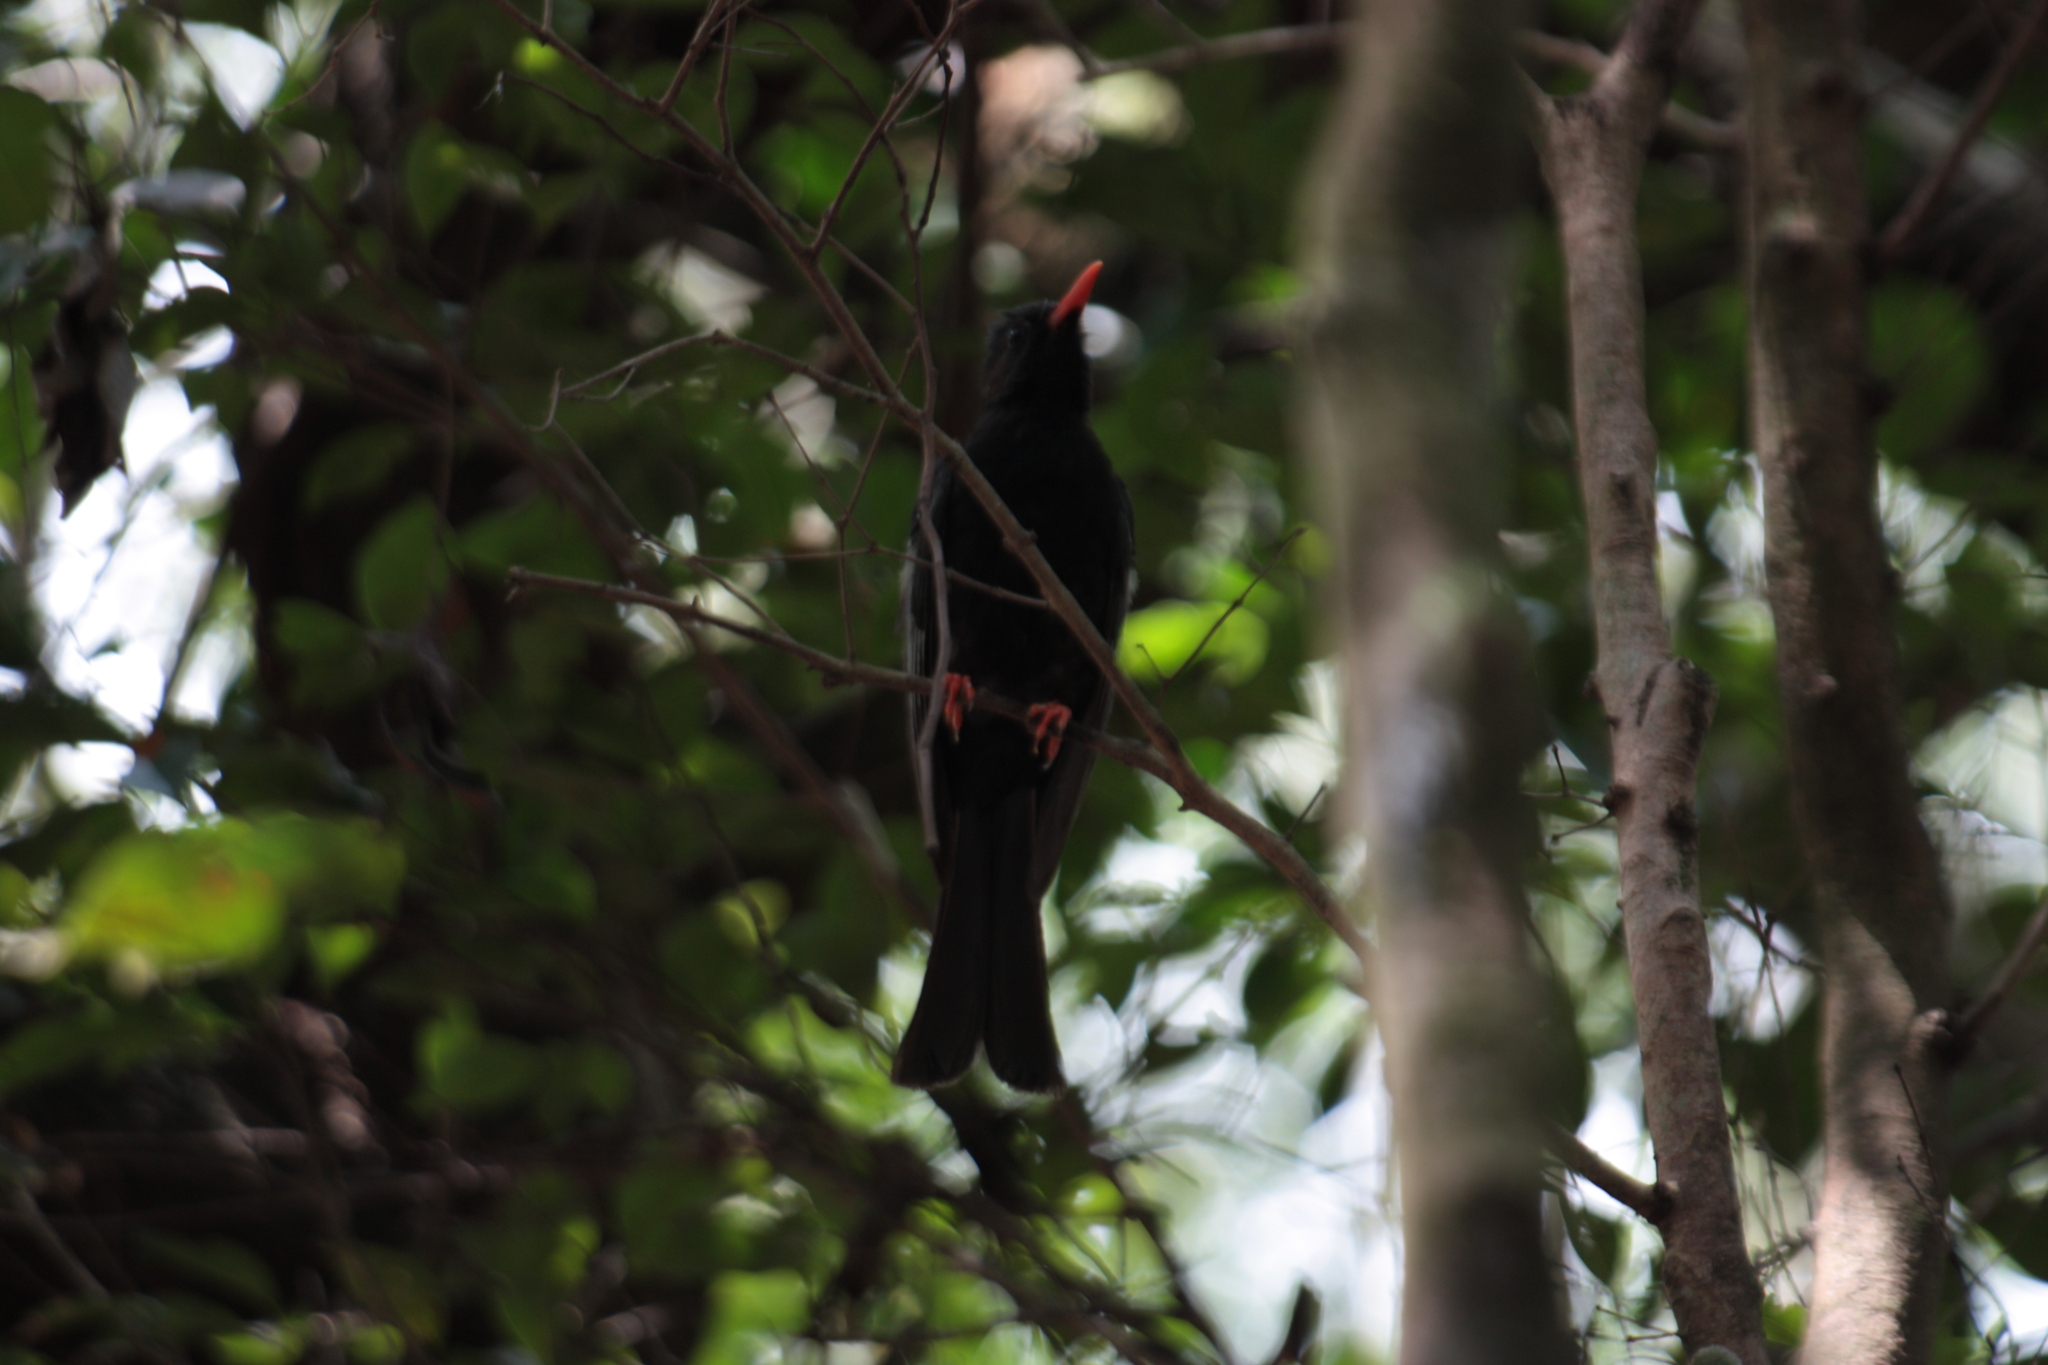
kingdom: Animalia
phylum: Chordata
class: Aves
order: Passeriformes
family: Pycnonotidae
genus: Hypsipetes
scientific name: Hypsipetes leucocephalus
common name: Black bulbul
